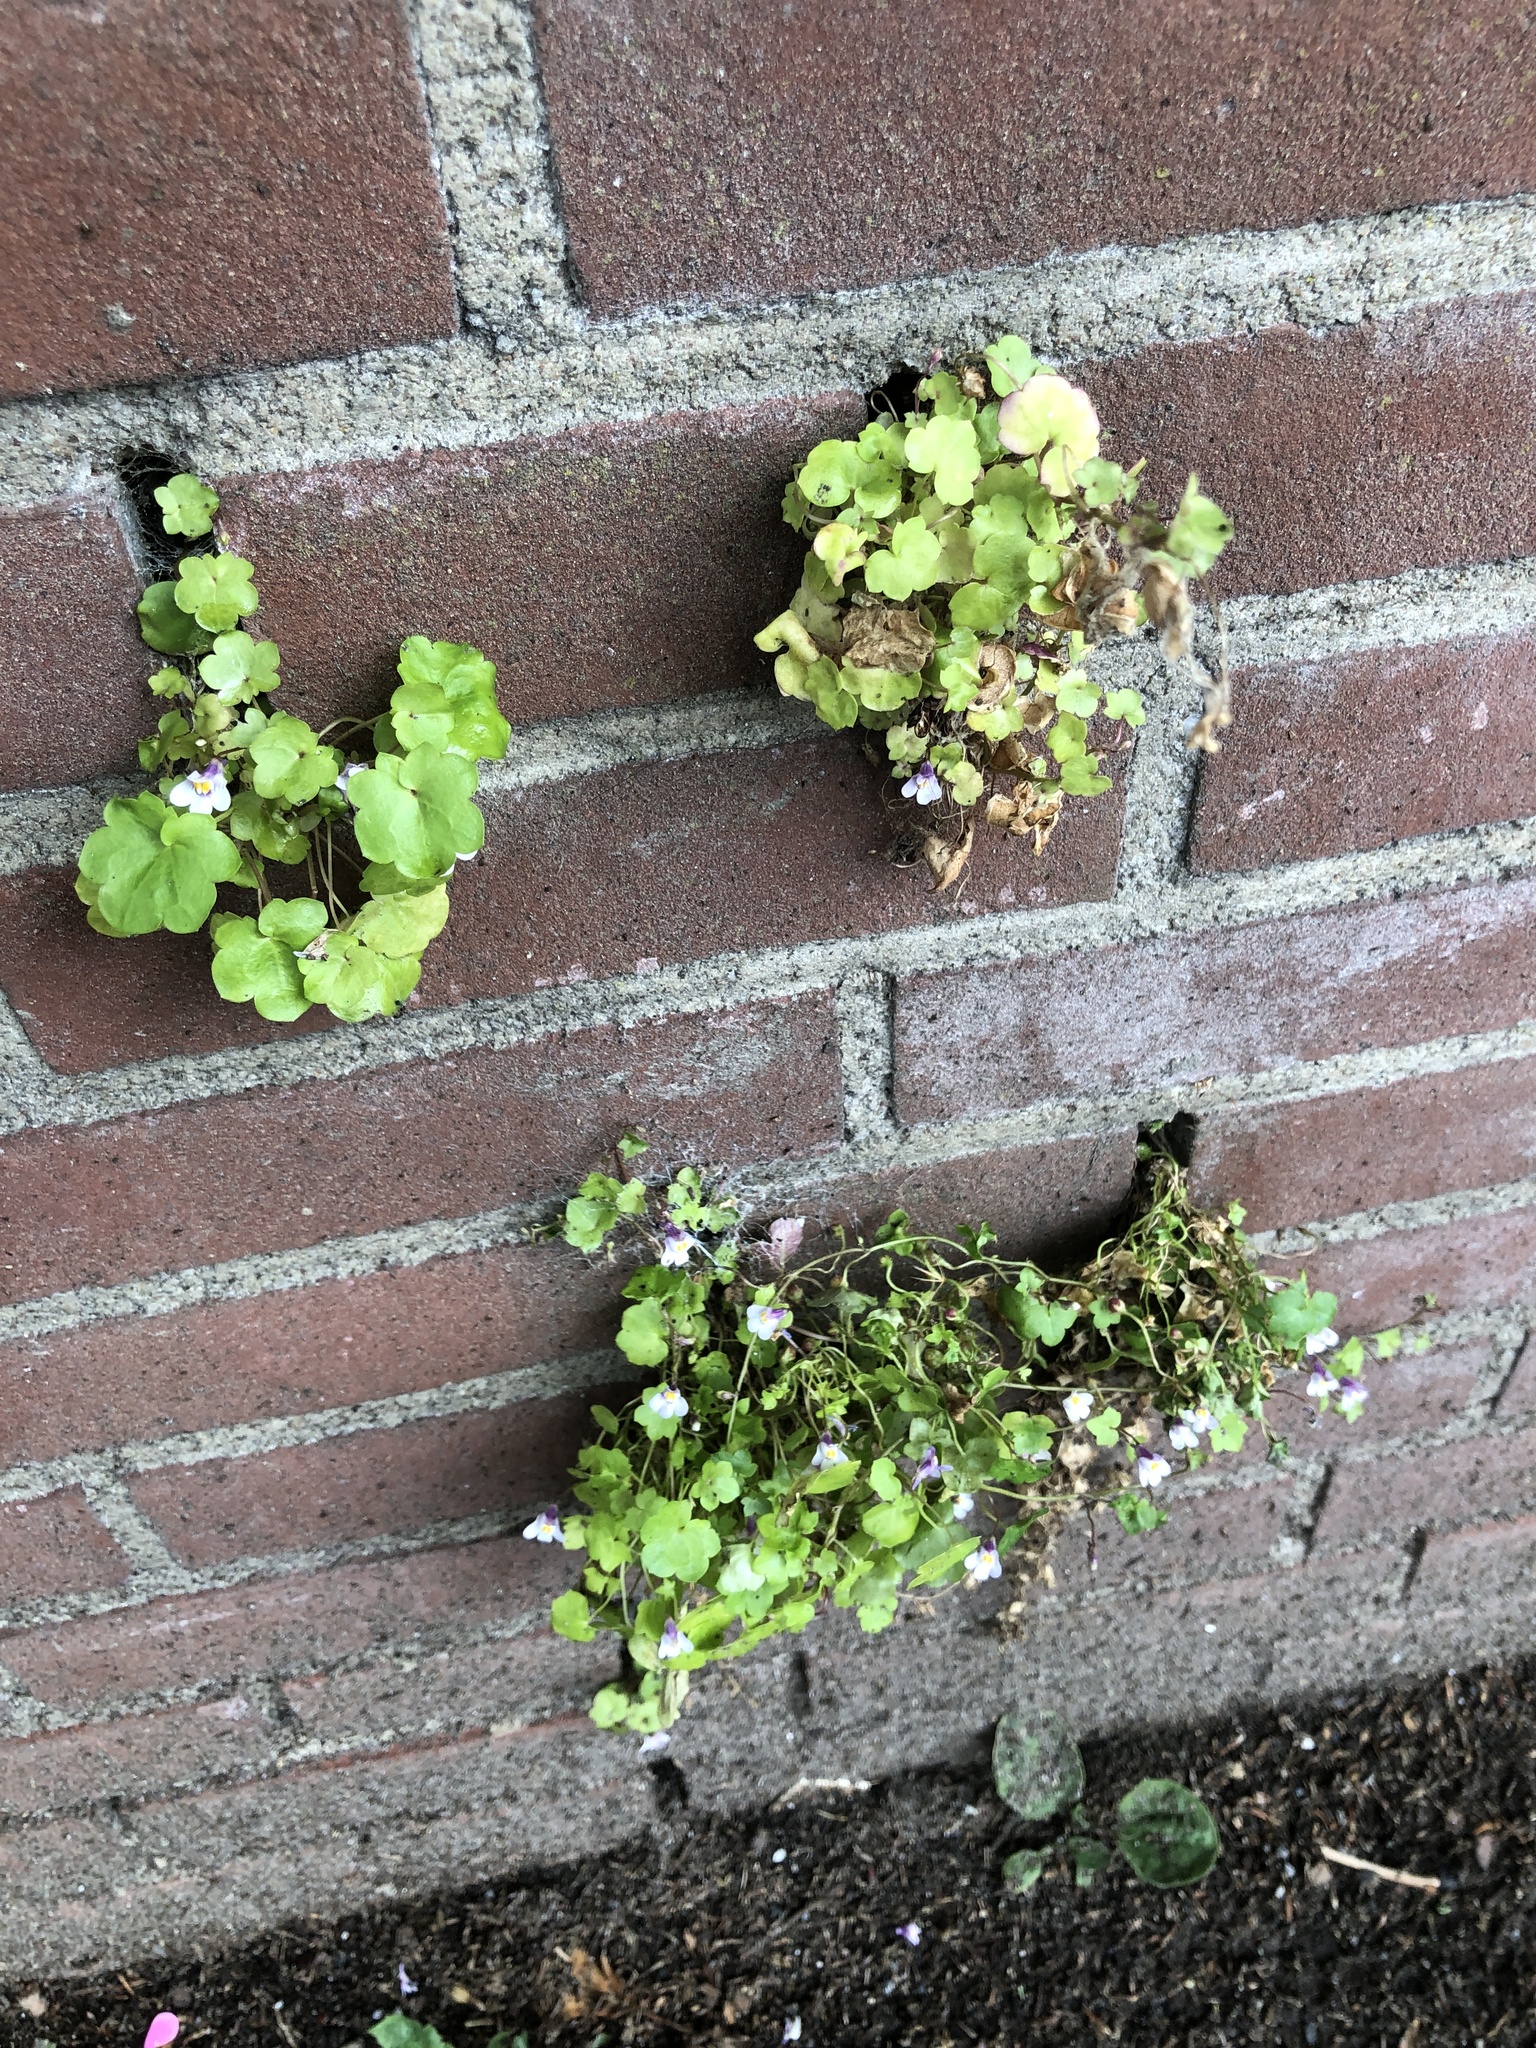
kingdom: Plantae
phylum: Tracheophyta
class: Magnoliopsida
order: Lamiales
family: Plantaginaceae
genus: Cymbalaria
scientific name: Cymbalaria muralis
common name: Ivy-leaved toadflax
